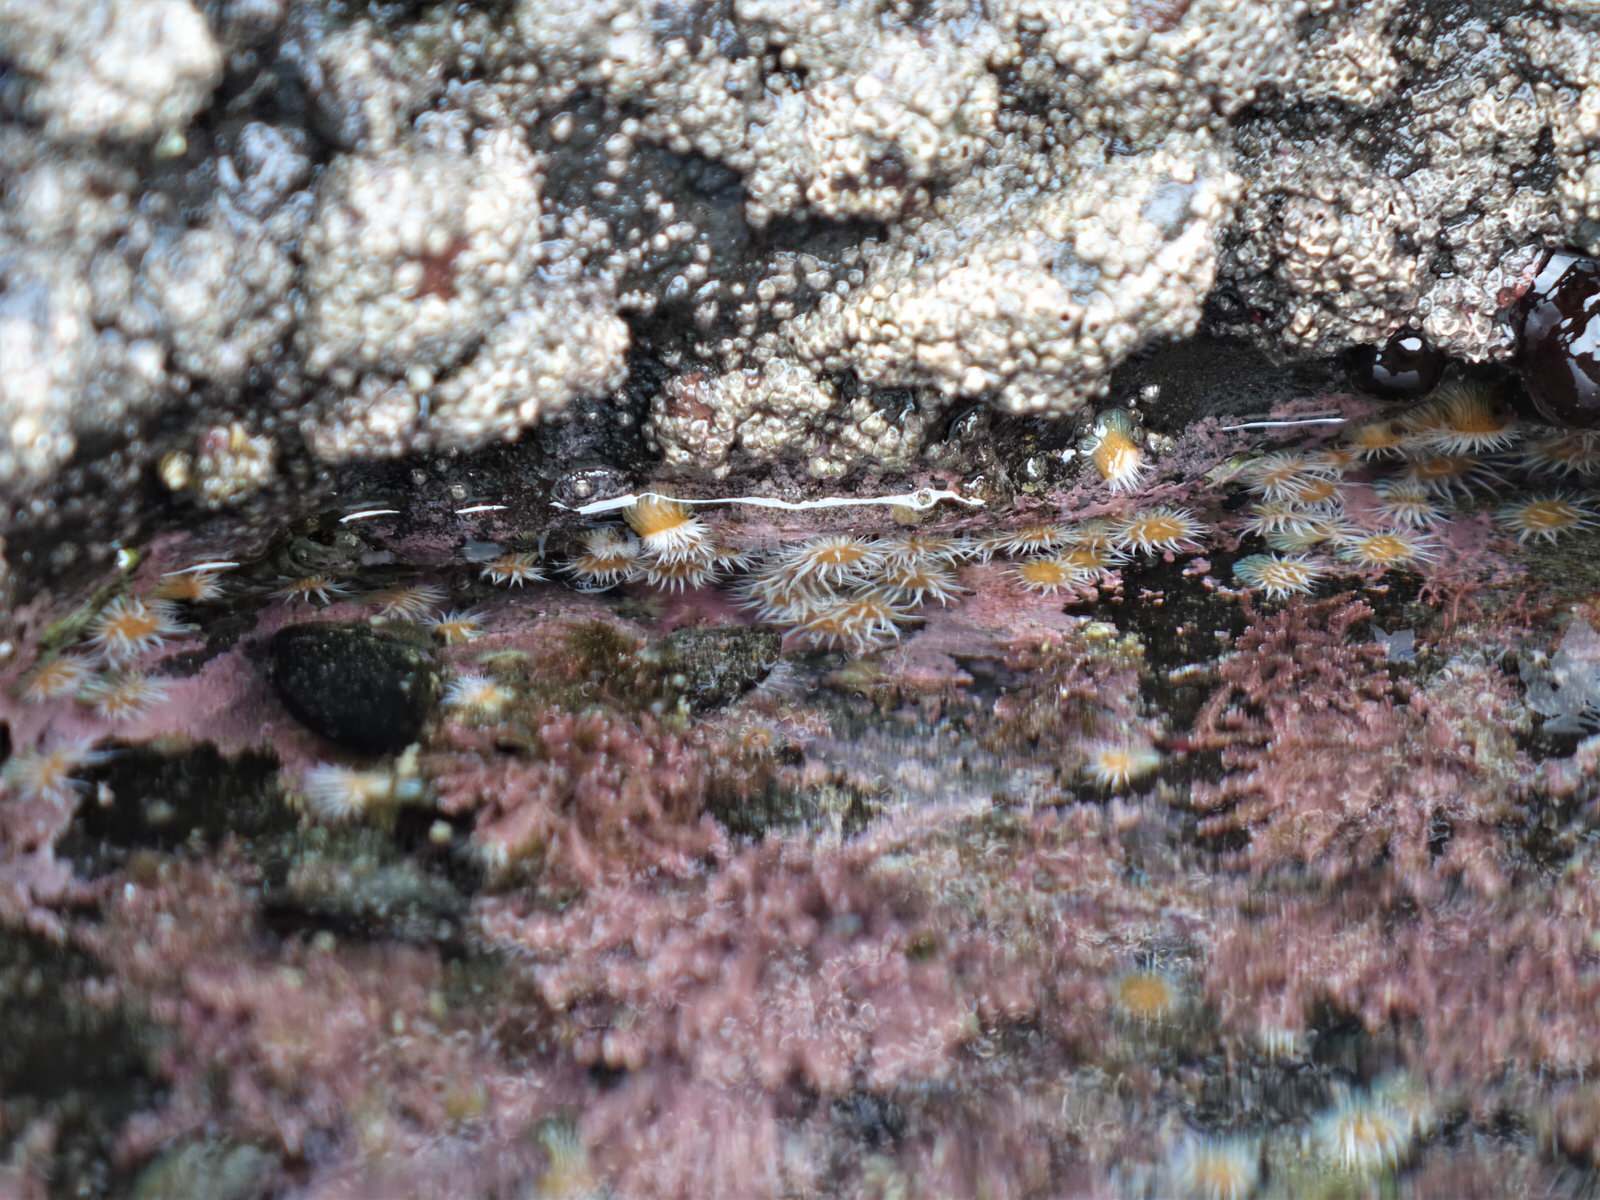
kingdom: Animalia
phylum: Cnidaria
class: Anthozoa
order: Actiniaria
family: Sagartiidae
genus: Anthothoe
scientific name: Anthothoe albocincta
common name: Orange striped anemone
